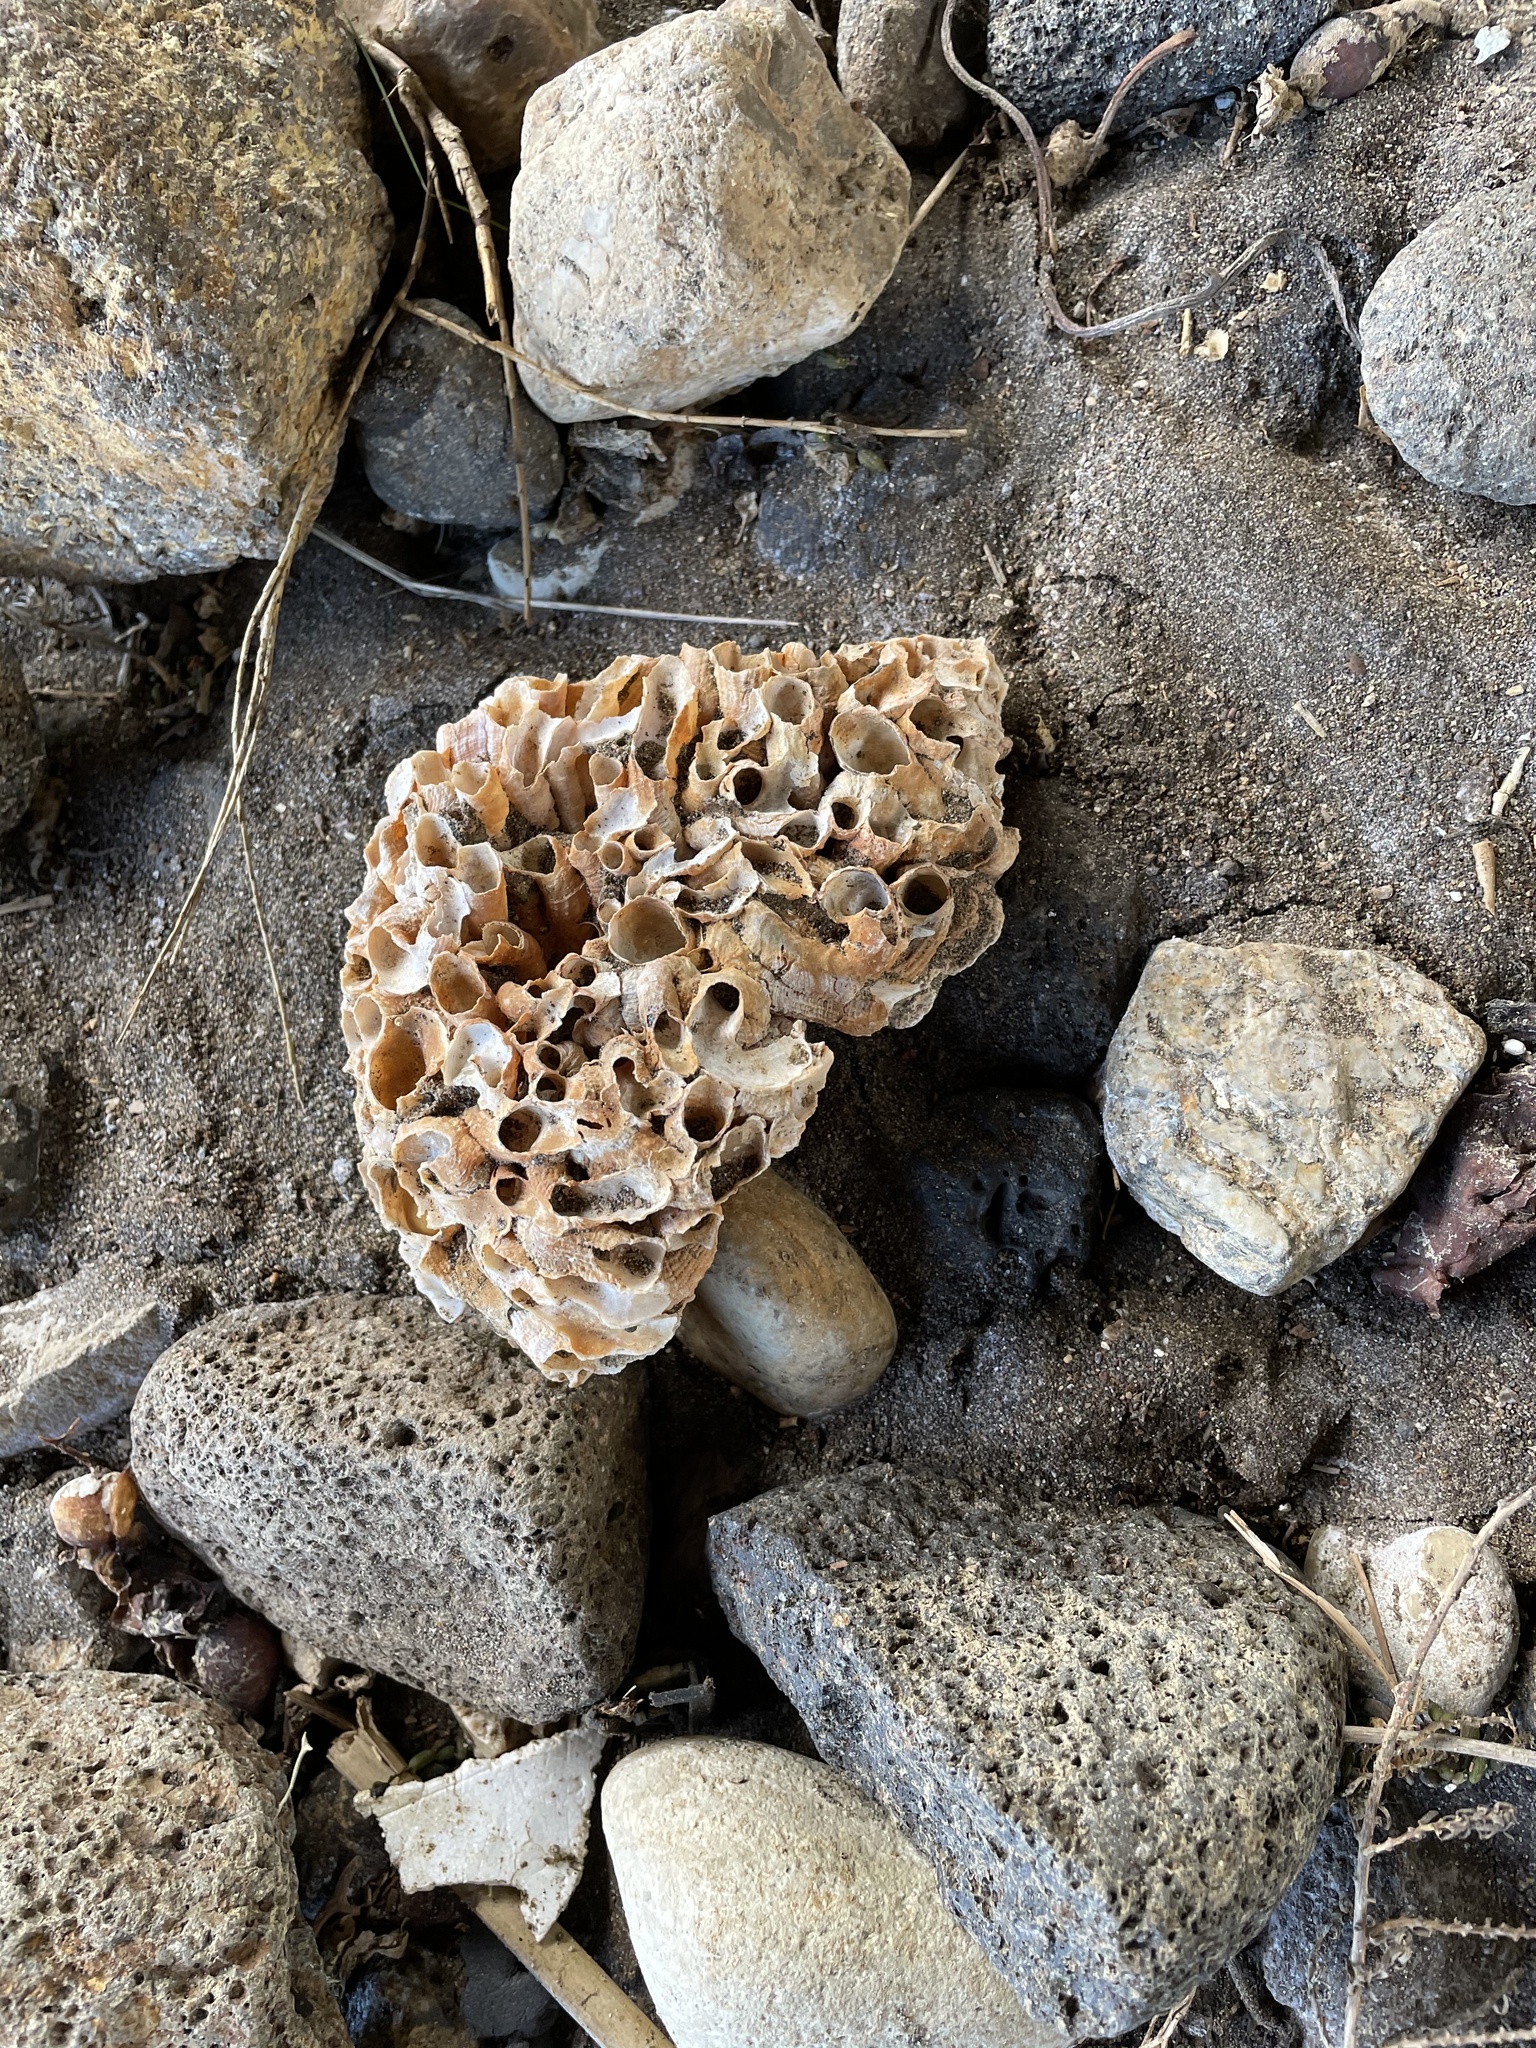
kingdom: Animalia
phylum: Mollusca
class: Gastropoda
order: Littorinimorpha
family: Vermetidae
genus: Thylacodes
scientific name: Thylacodes squamigerus
